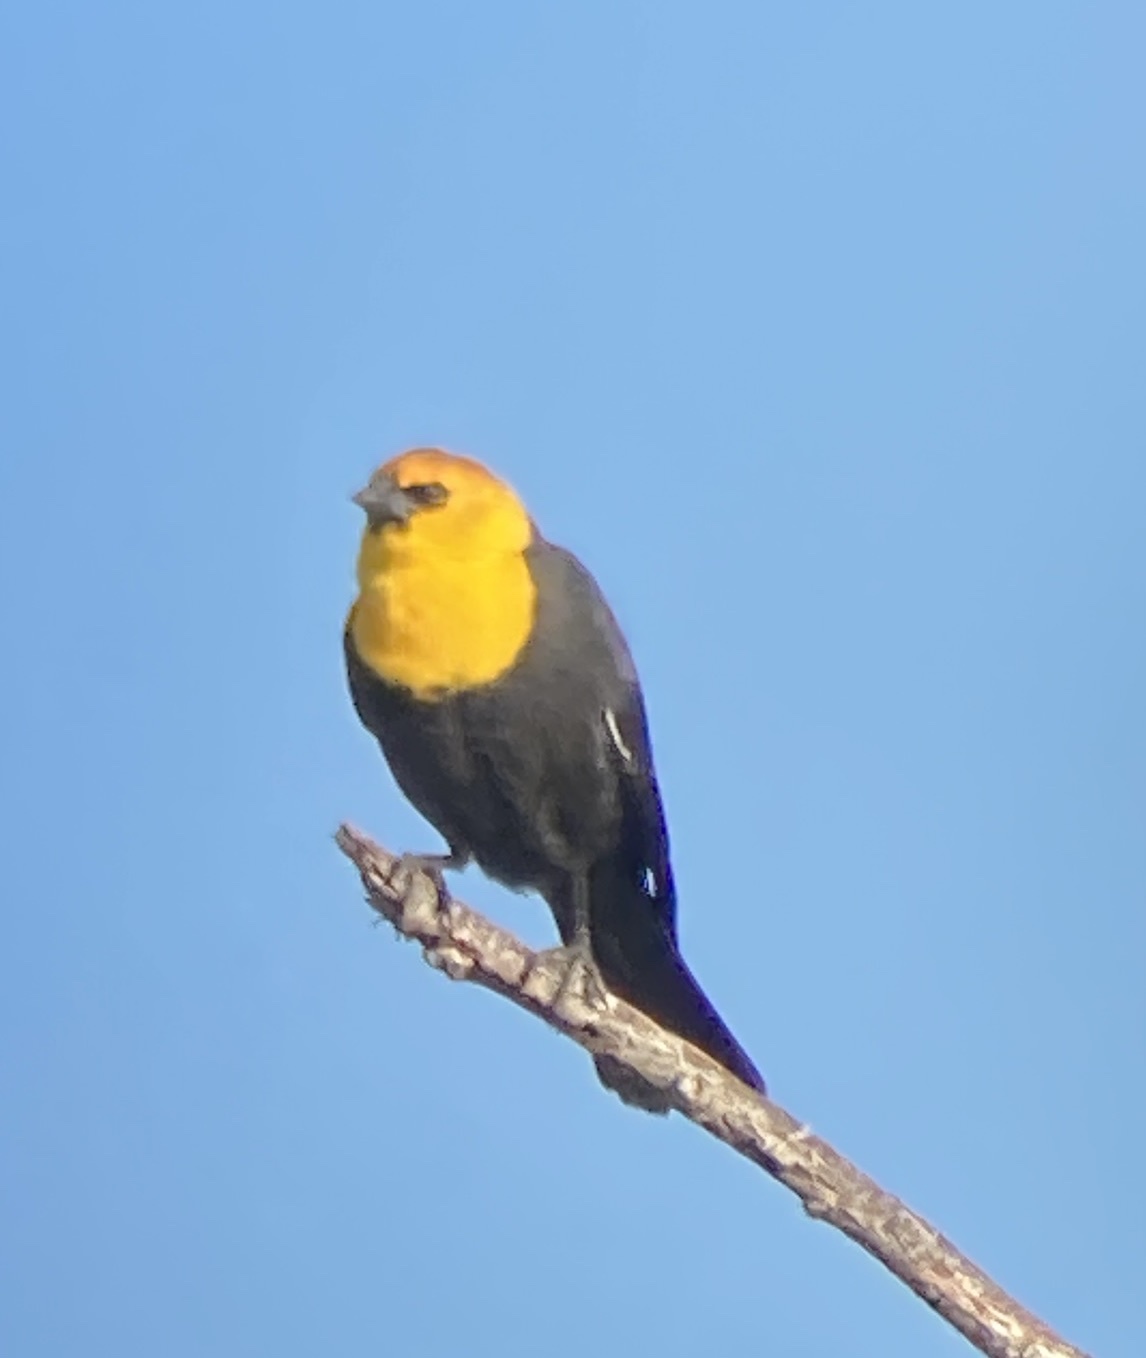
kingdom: Animalia
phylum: Chordata
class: Aves
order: Passeriformes
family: Icteridae
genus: Xanthocephalus
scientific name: Xanthocephalus xanthocephalus
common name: Yellow-headed blackbird
